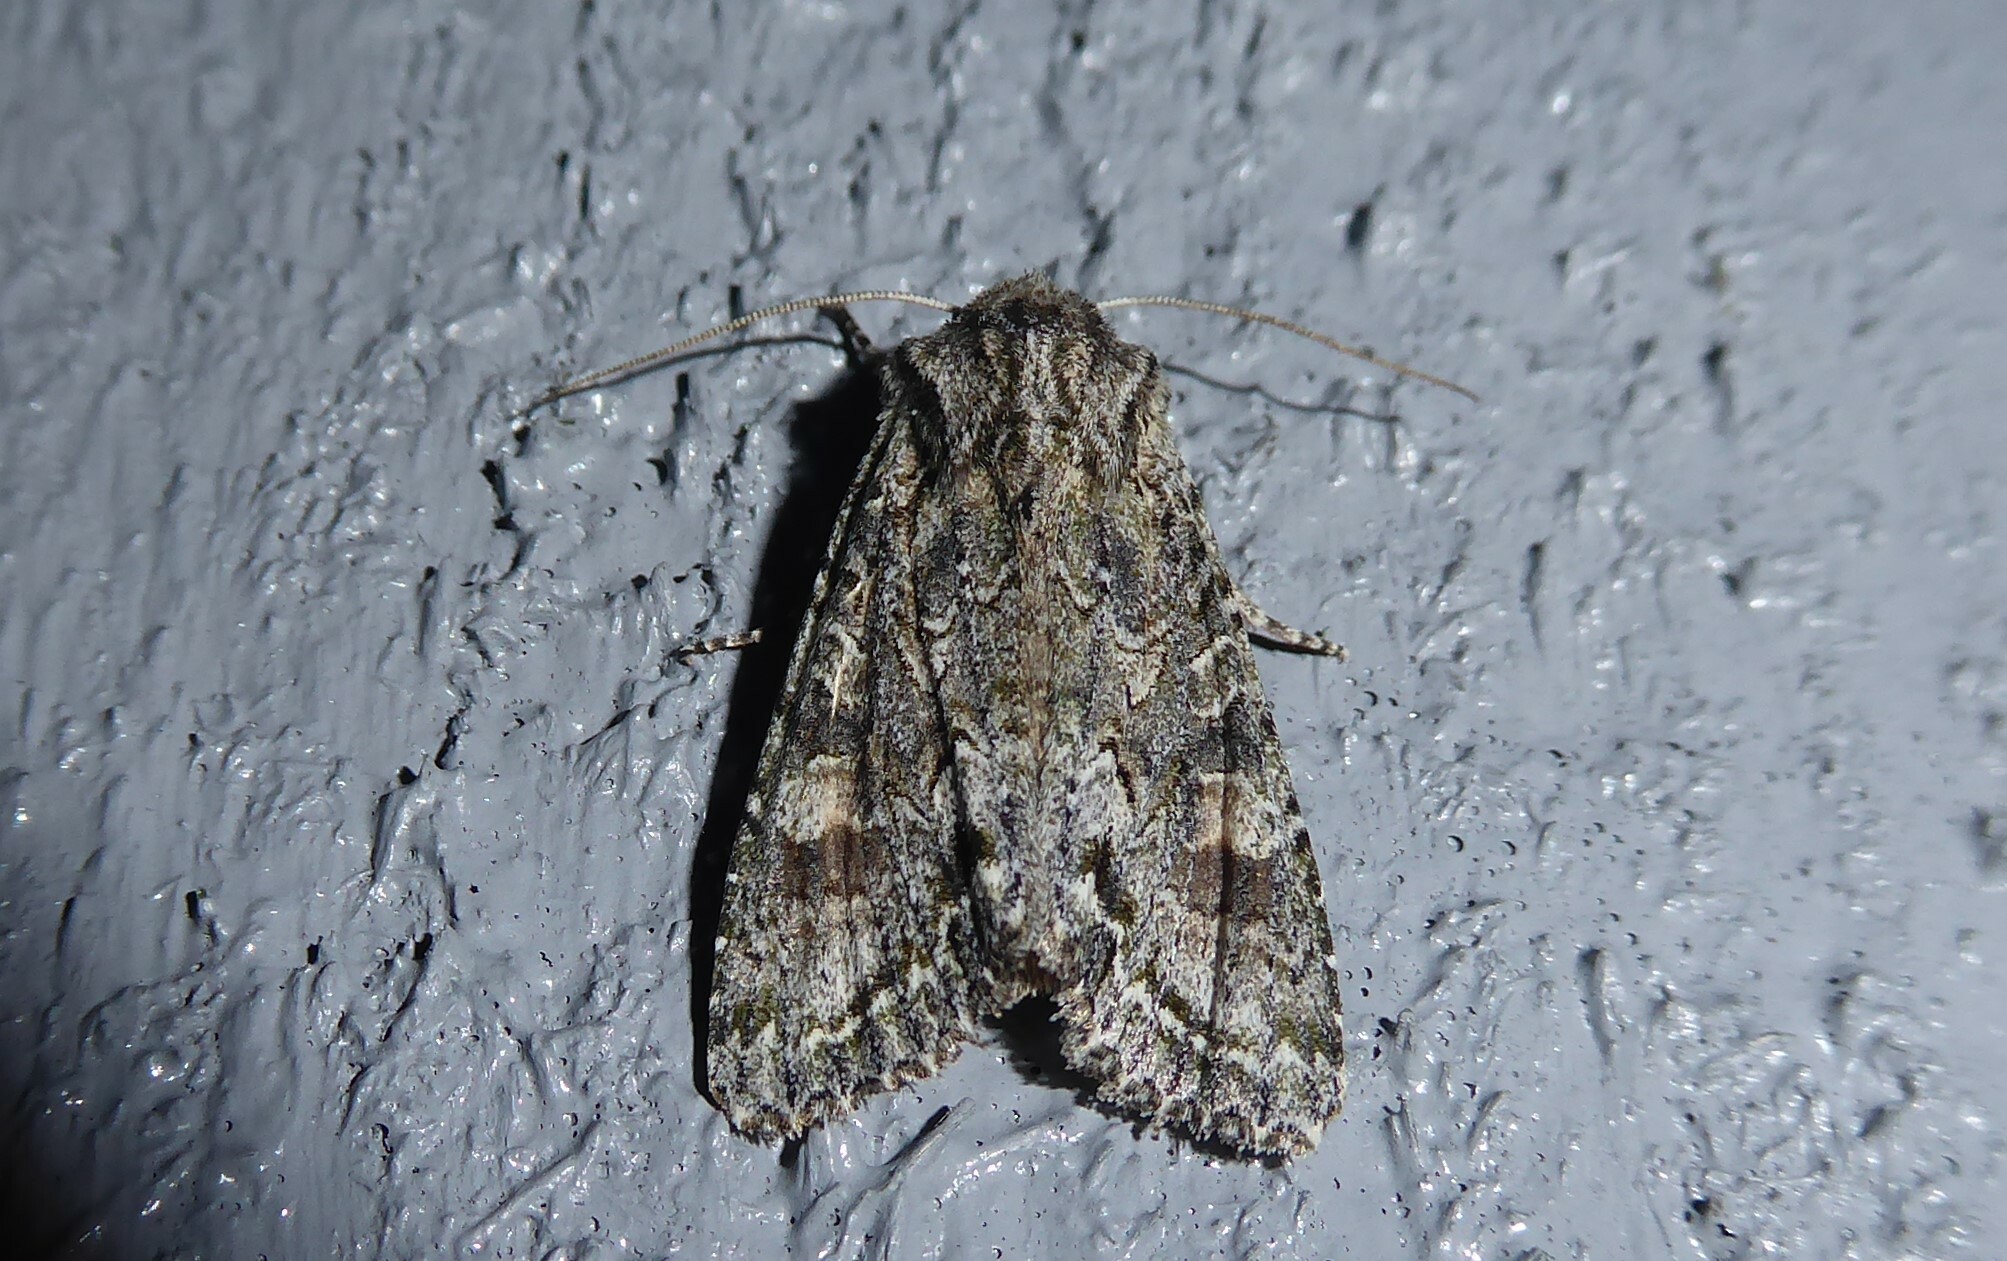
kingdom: Animalia
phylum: Arthropoda
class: Insecta
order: Lepidoptera
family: Noctuidae
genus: Ichneutica
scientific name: Ichneutica mutans
